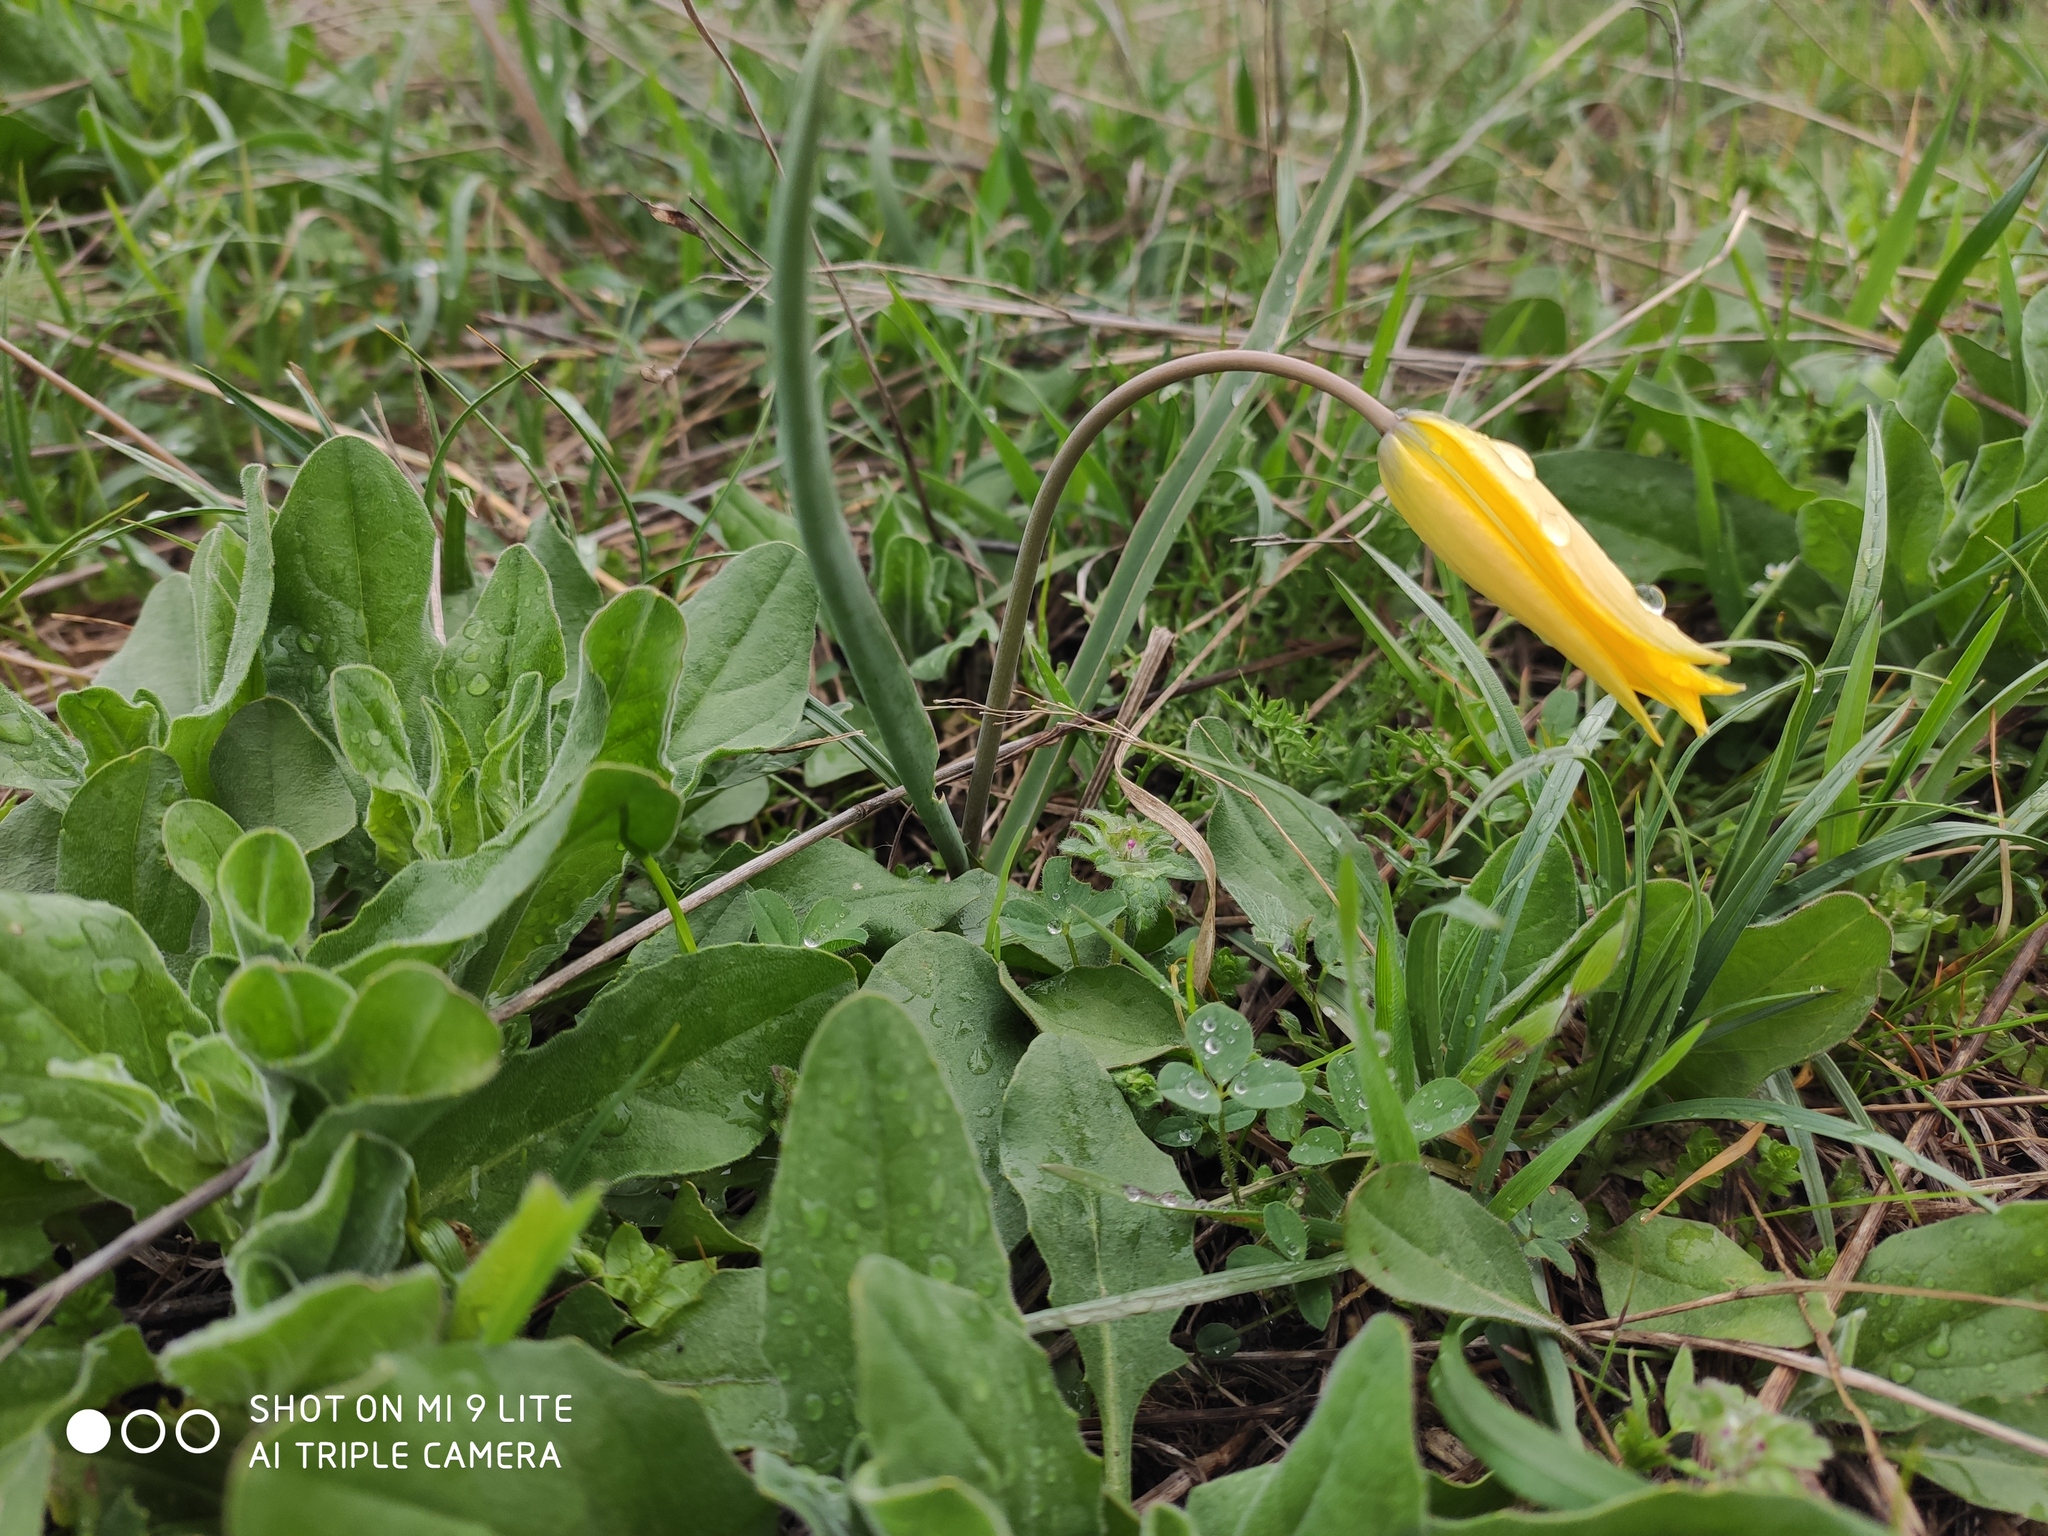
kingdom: Plantae
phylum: Tracheophyta
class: Liliopsida
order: Liliales
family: Liliaceae
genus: Tulipa
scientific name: Tulipa sylvestris
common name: Wild tulip
